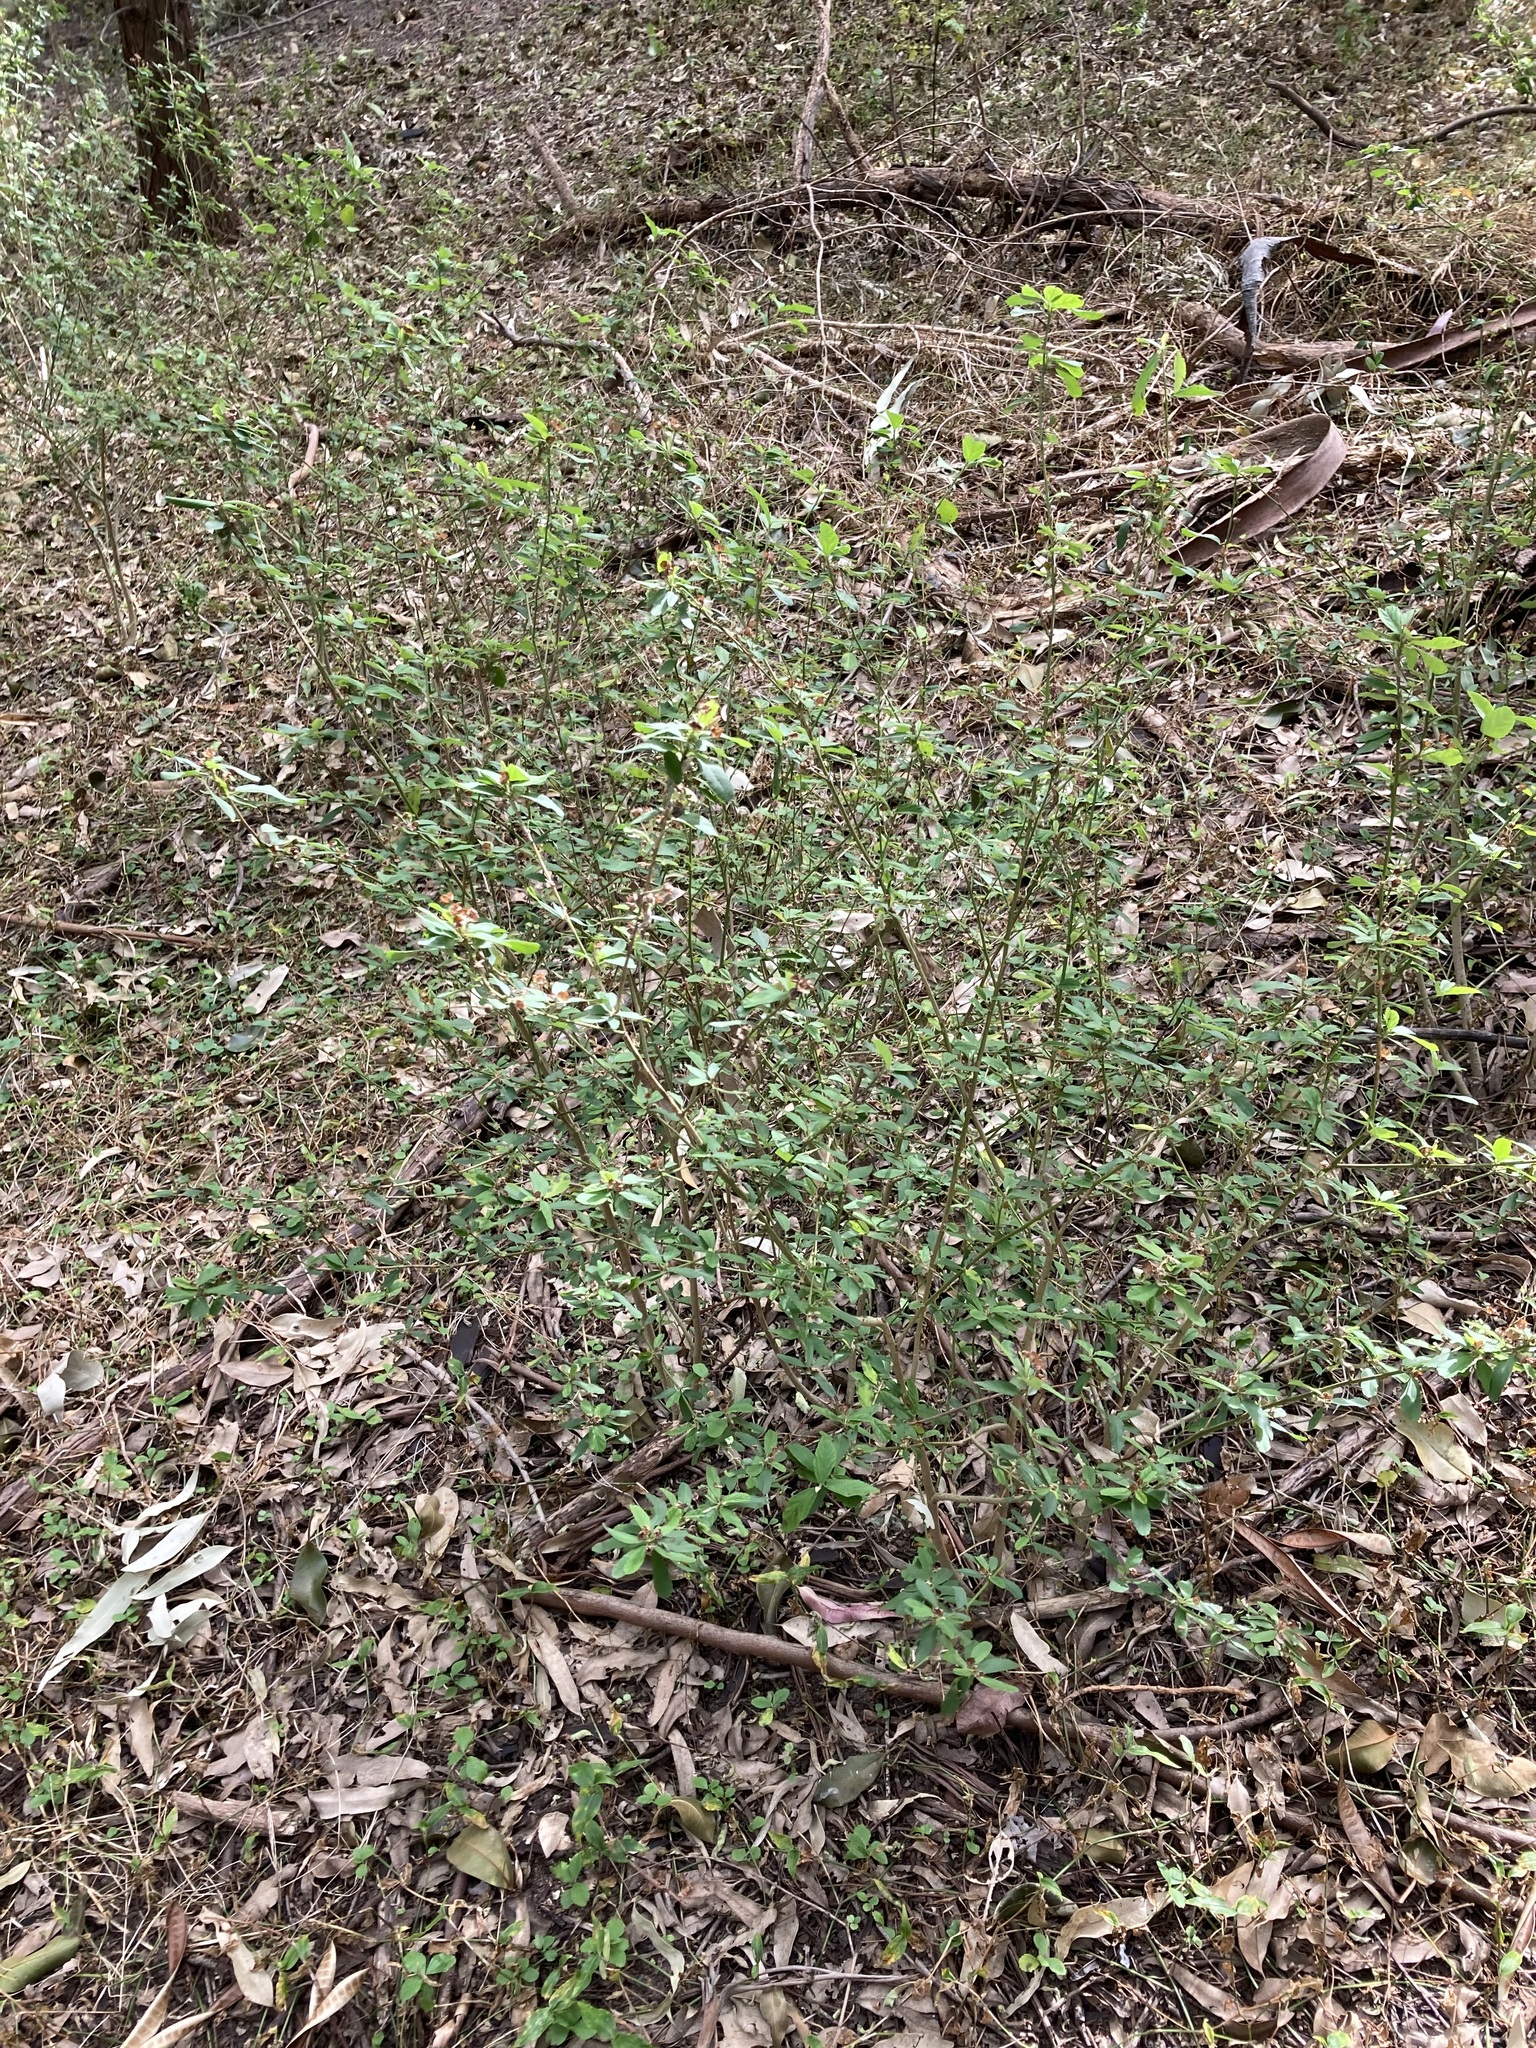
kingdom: Plantae
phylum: Tracheophyta
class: Magnoliopsida
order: Malvales
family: Malvaceae
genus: Sida
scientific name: Sida rhombifolia
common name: Queensland-hemp
